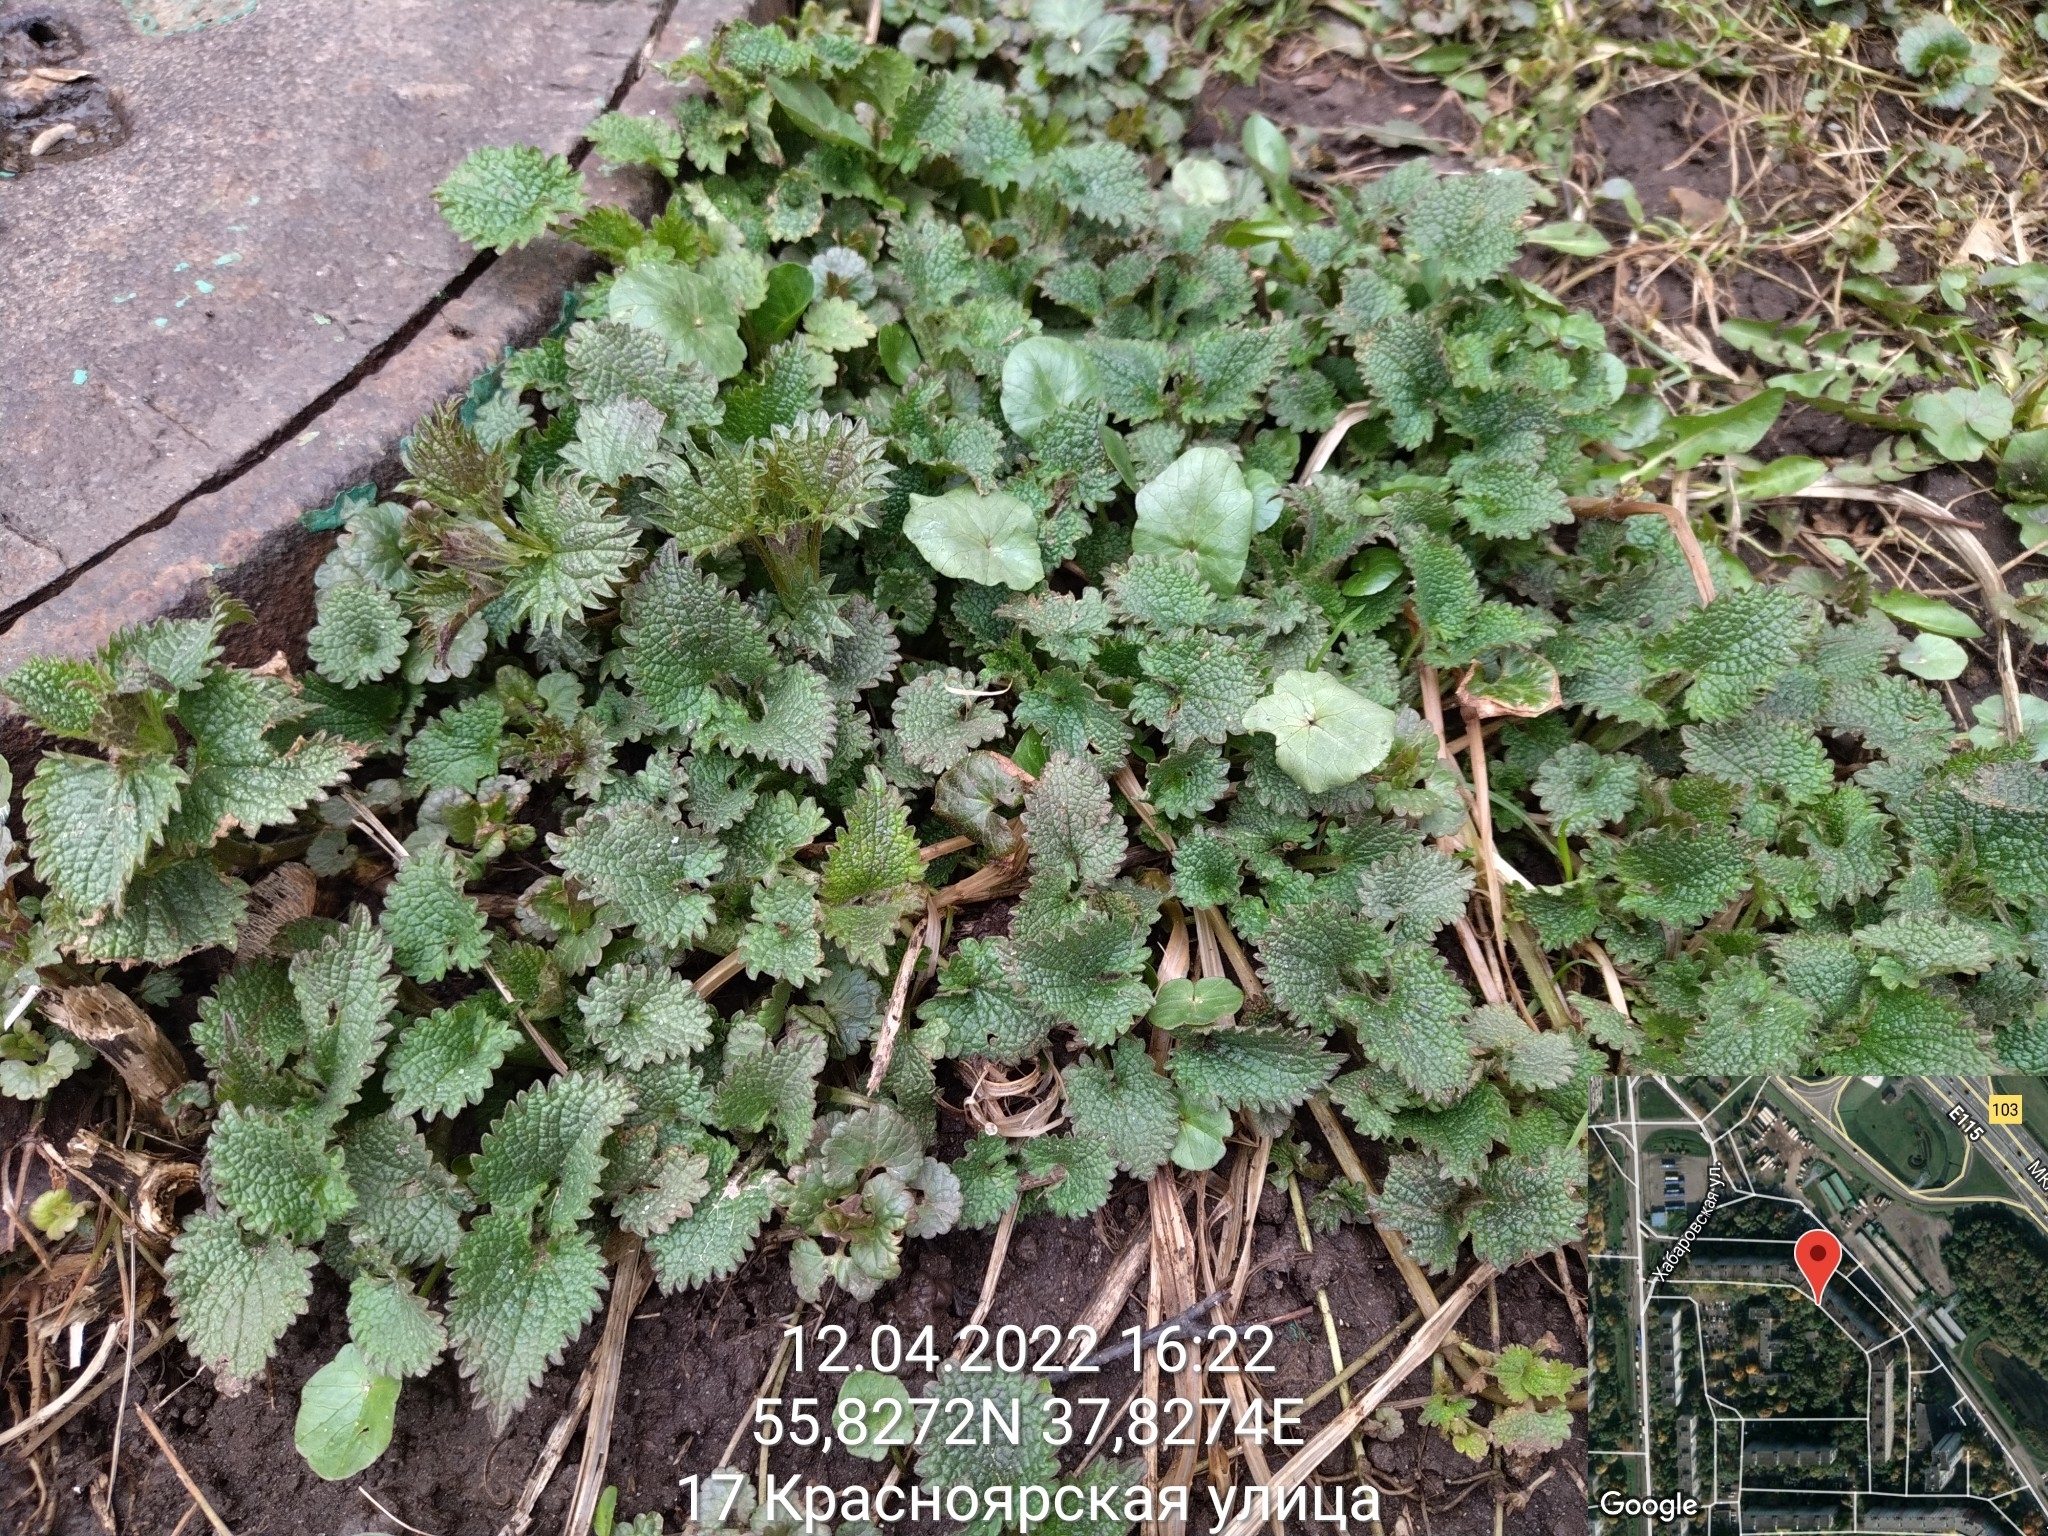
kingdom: Plantae
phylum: Tracheophyta
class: Magnoliopsida
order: Rosales
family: Urticaceae
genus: Urtica
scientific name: Urtica dioica
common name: Common nettle
